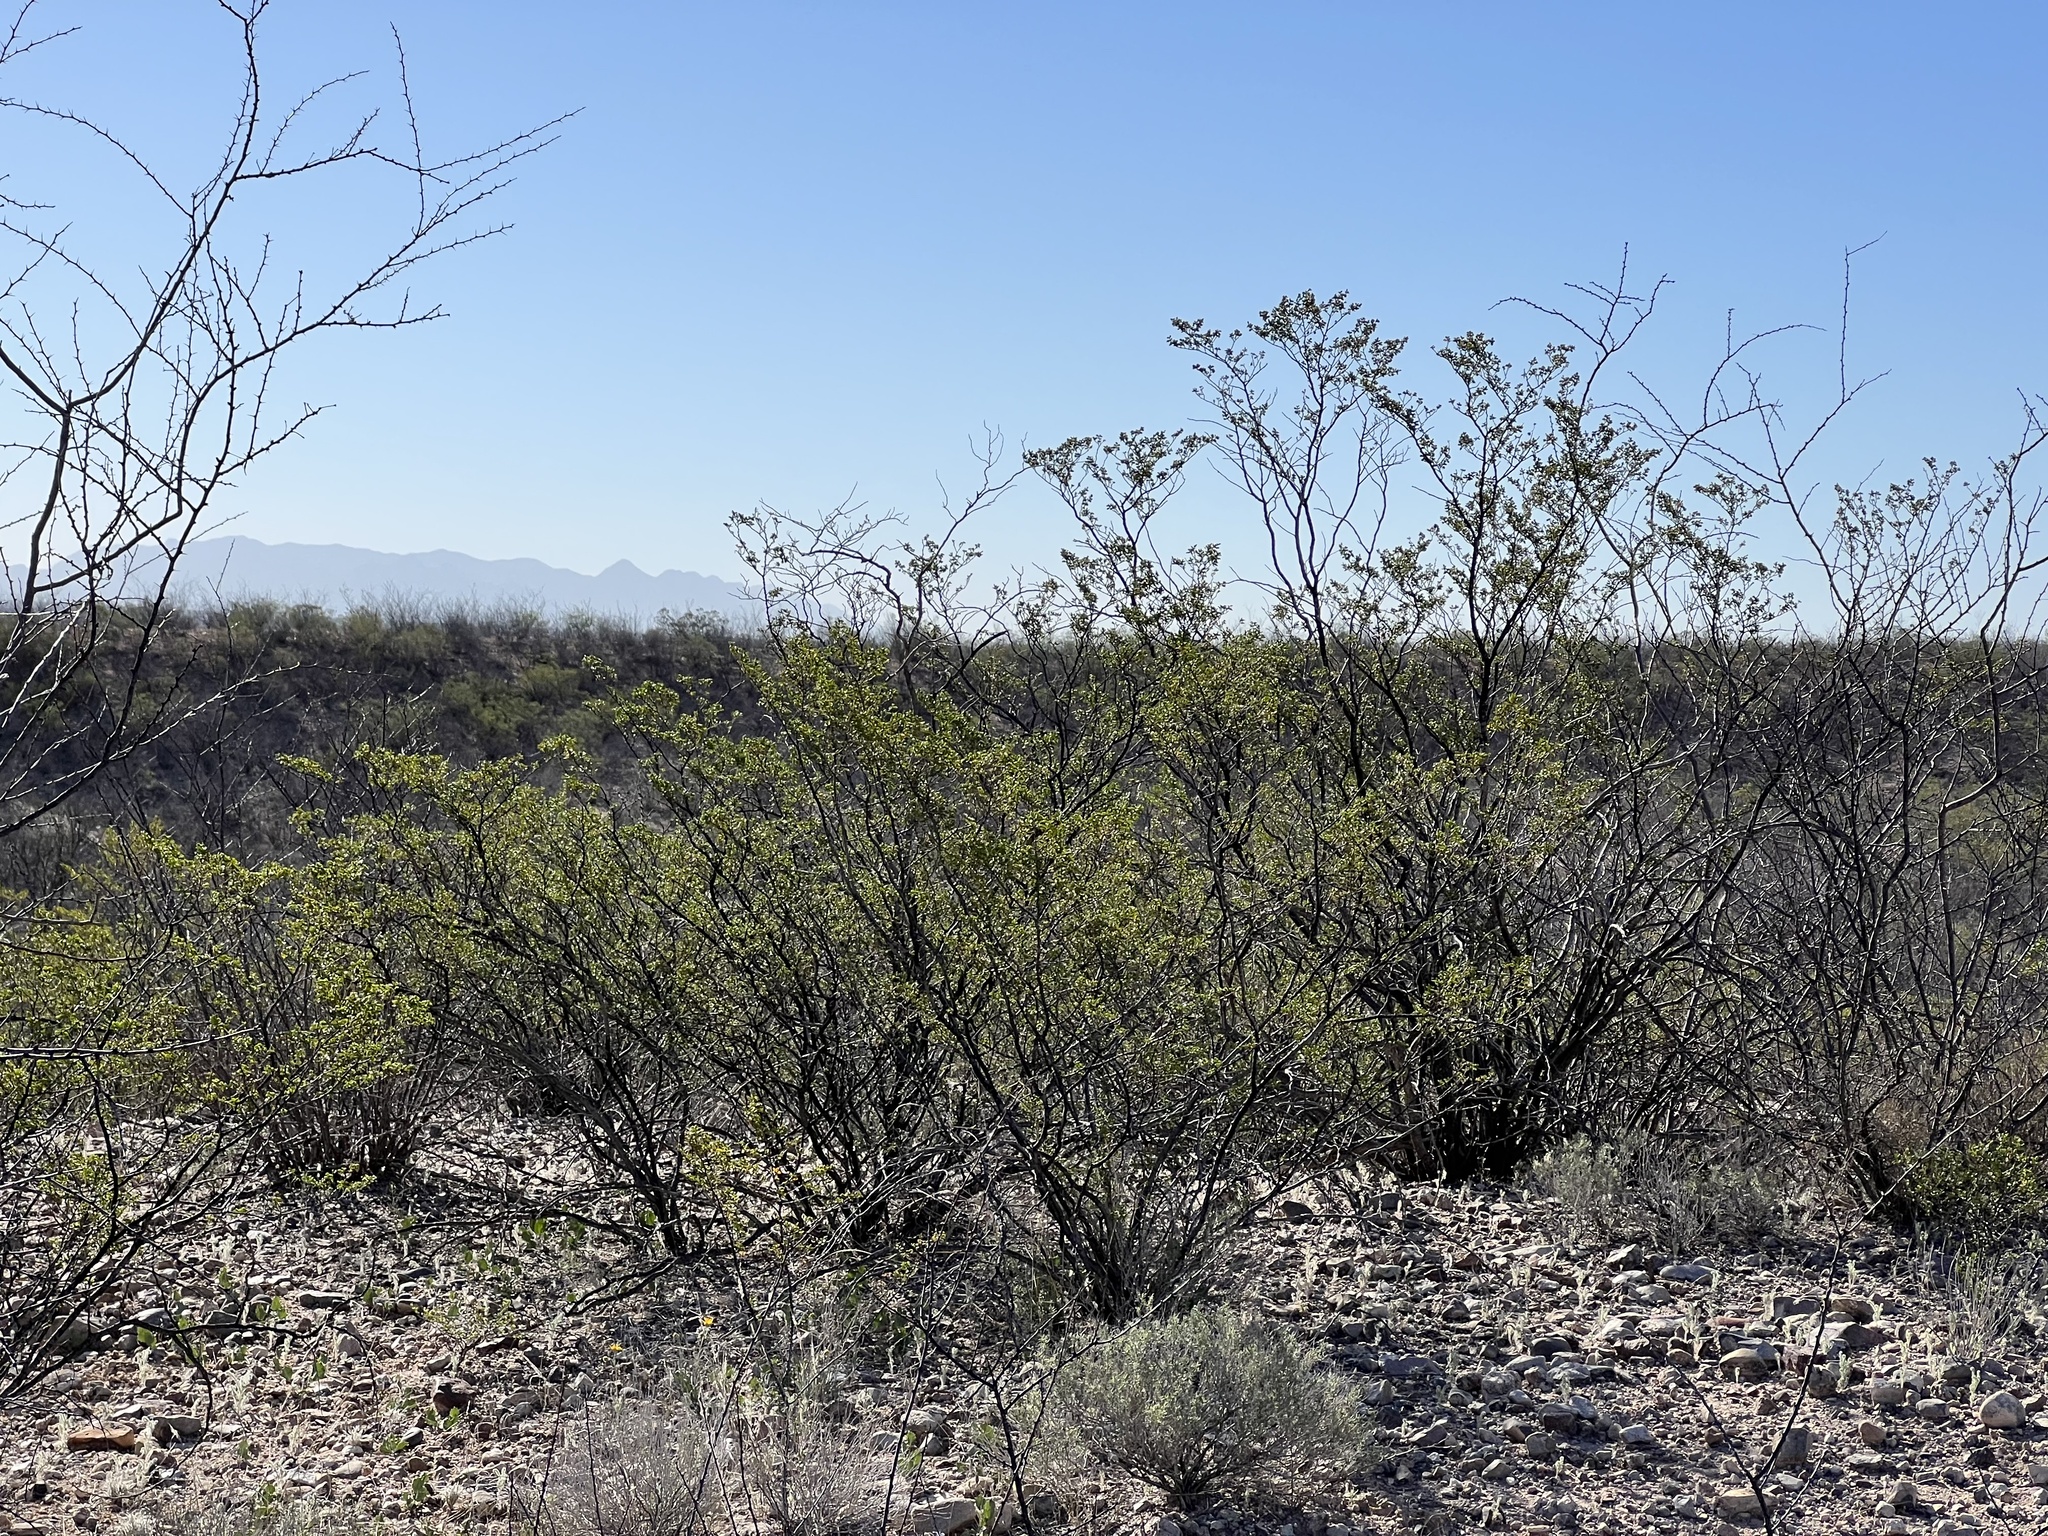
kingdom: Plantae
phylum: Tracheophyta
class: Magnoliopsida
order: Zygophyllales
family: Zygophyllaceae
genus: Larrea
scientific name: Larrea tridentata
